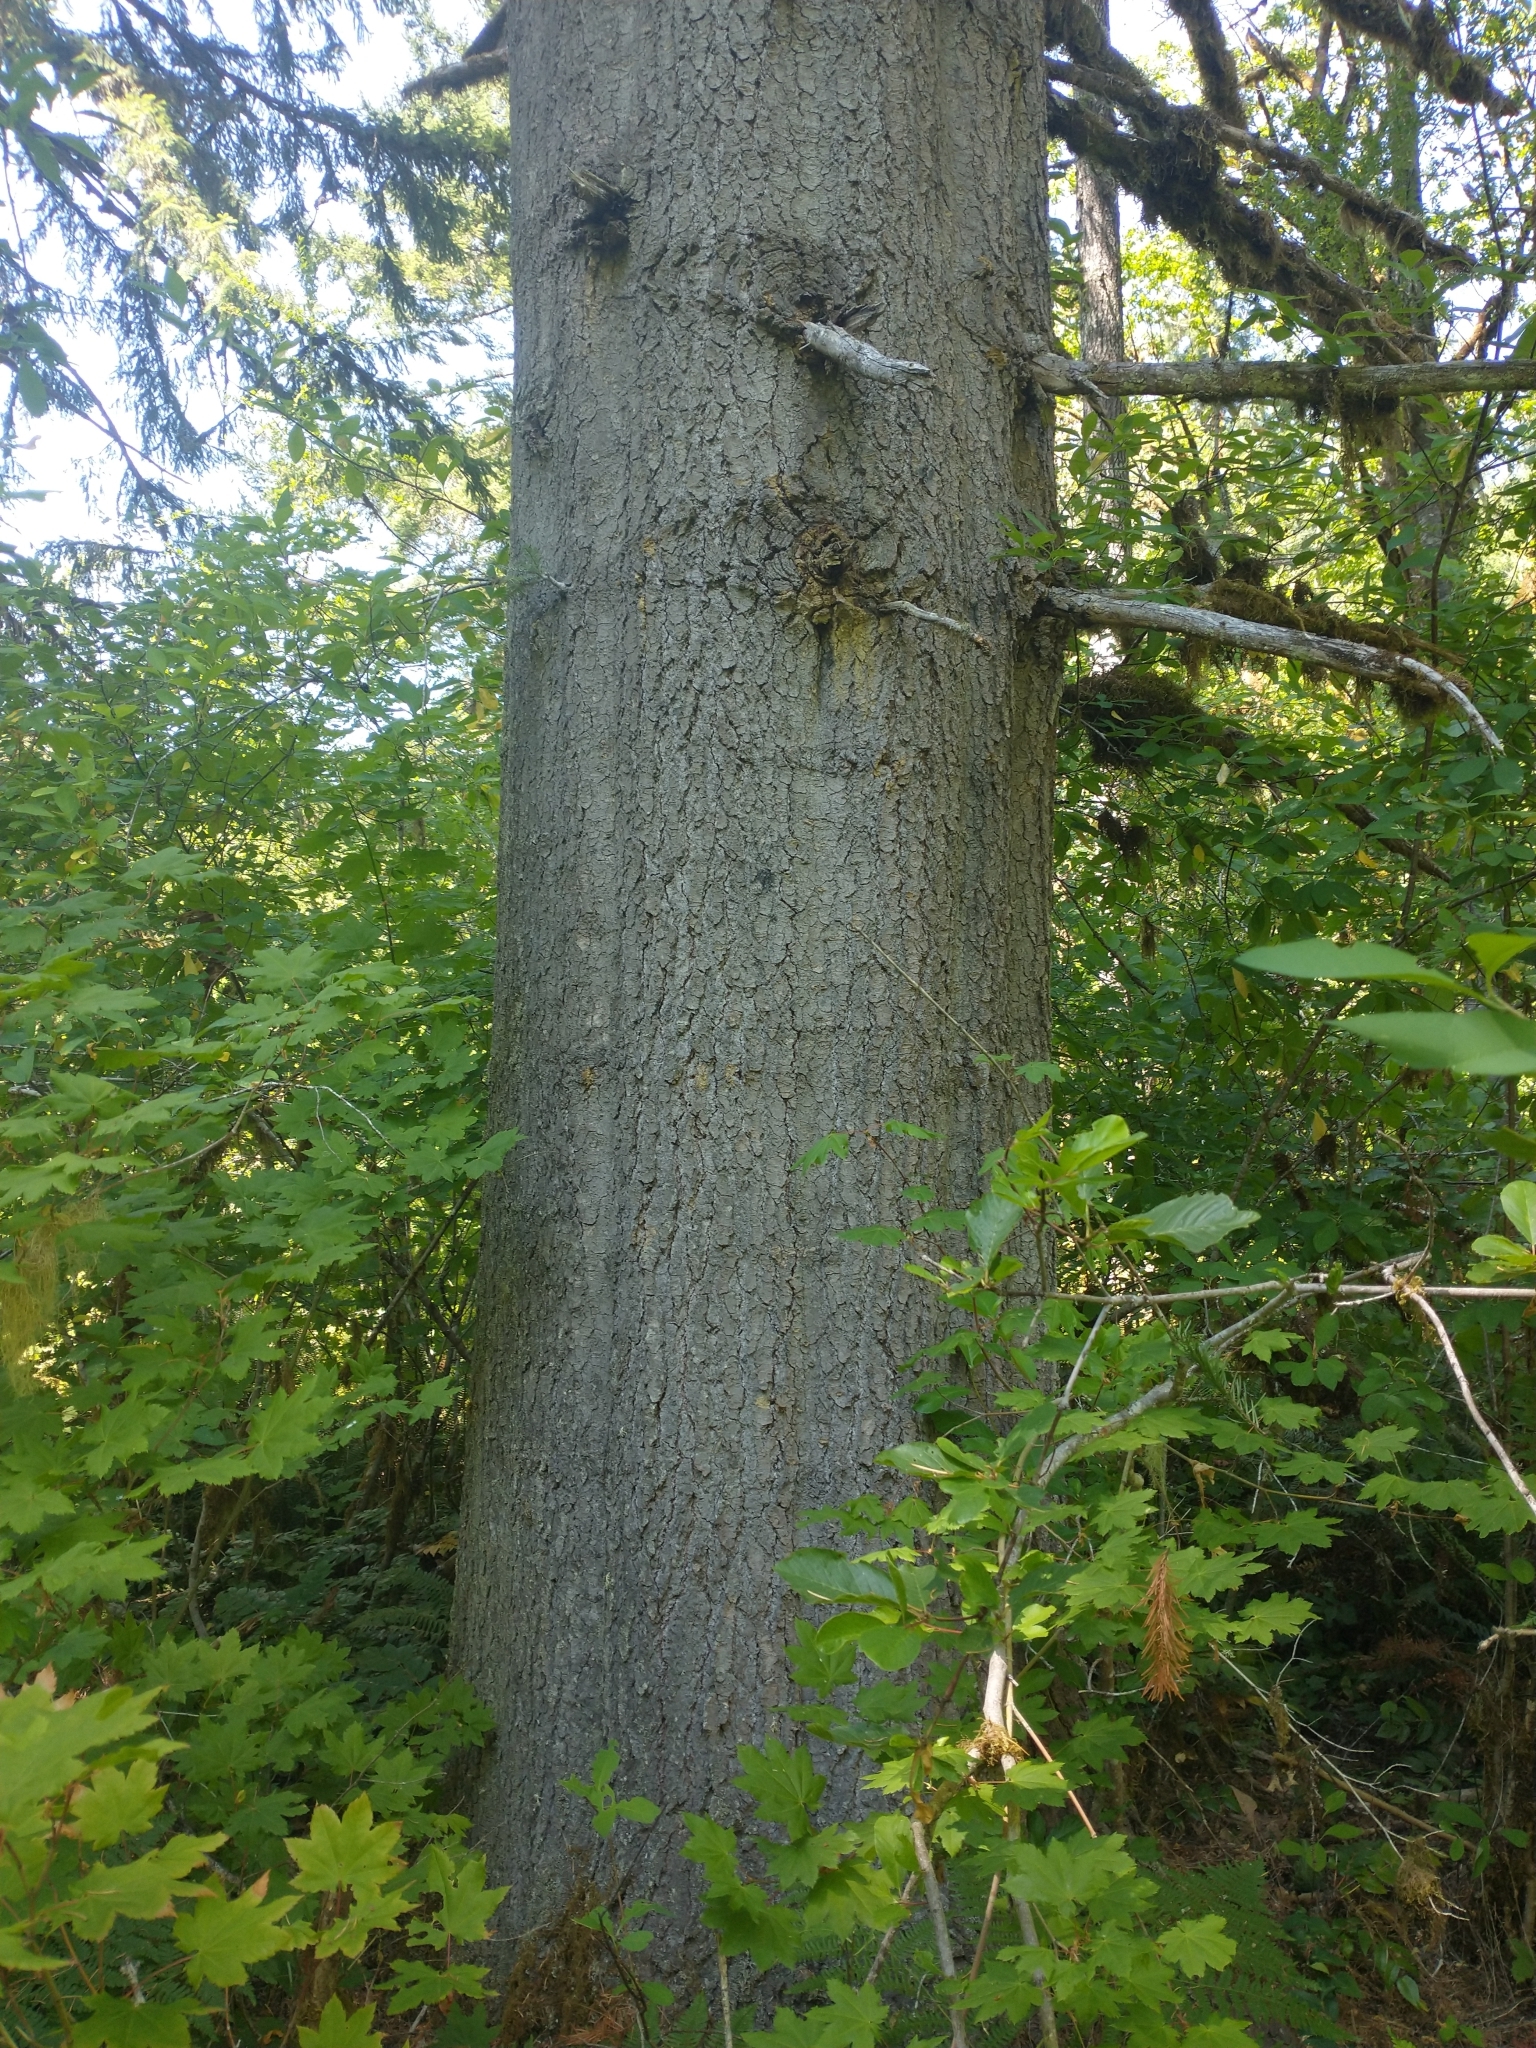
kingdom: Plantae
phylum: Tracheophyta
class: Pinopsida
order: Pinales
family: Pinaceae
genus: Abies
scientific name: Abies grandis
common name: Giant fir
